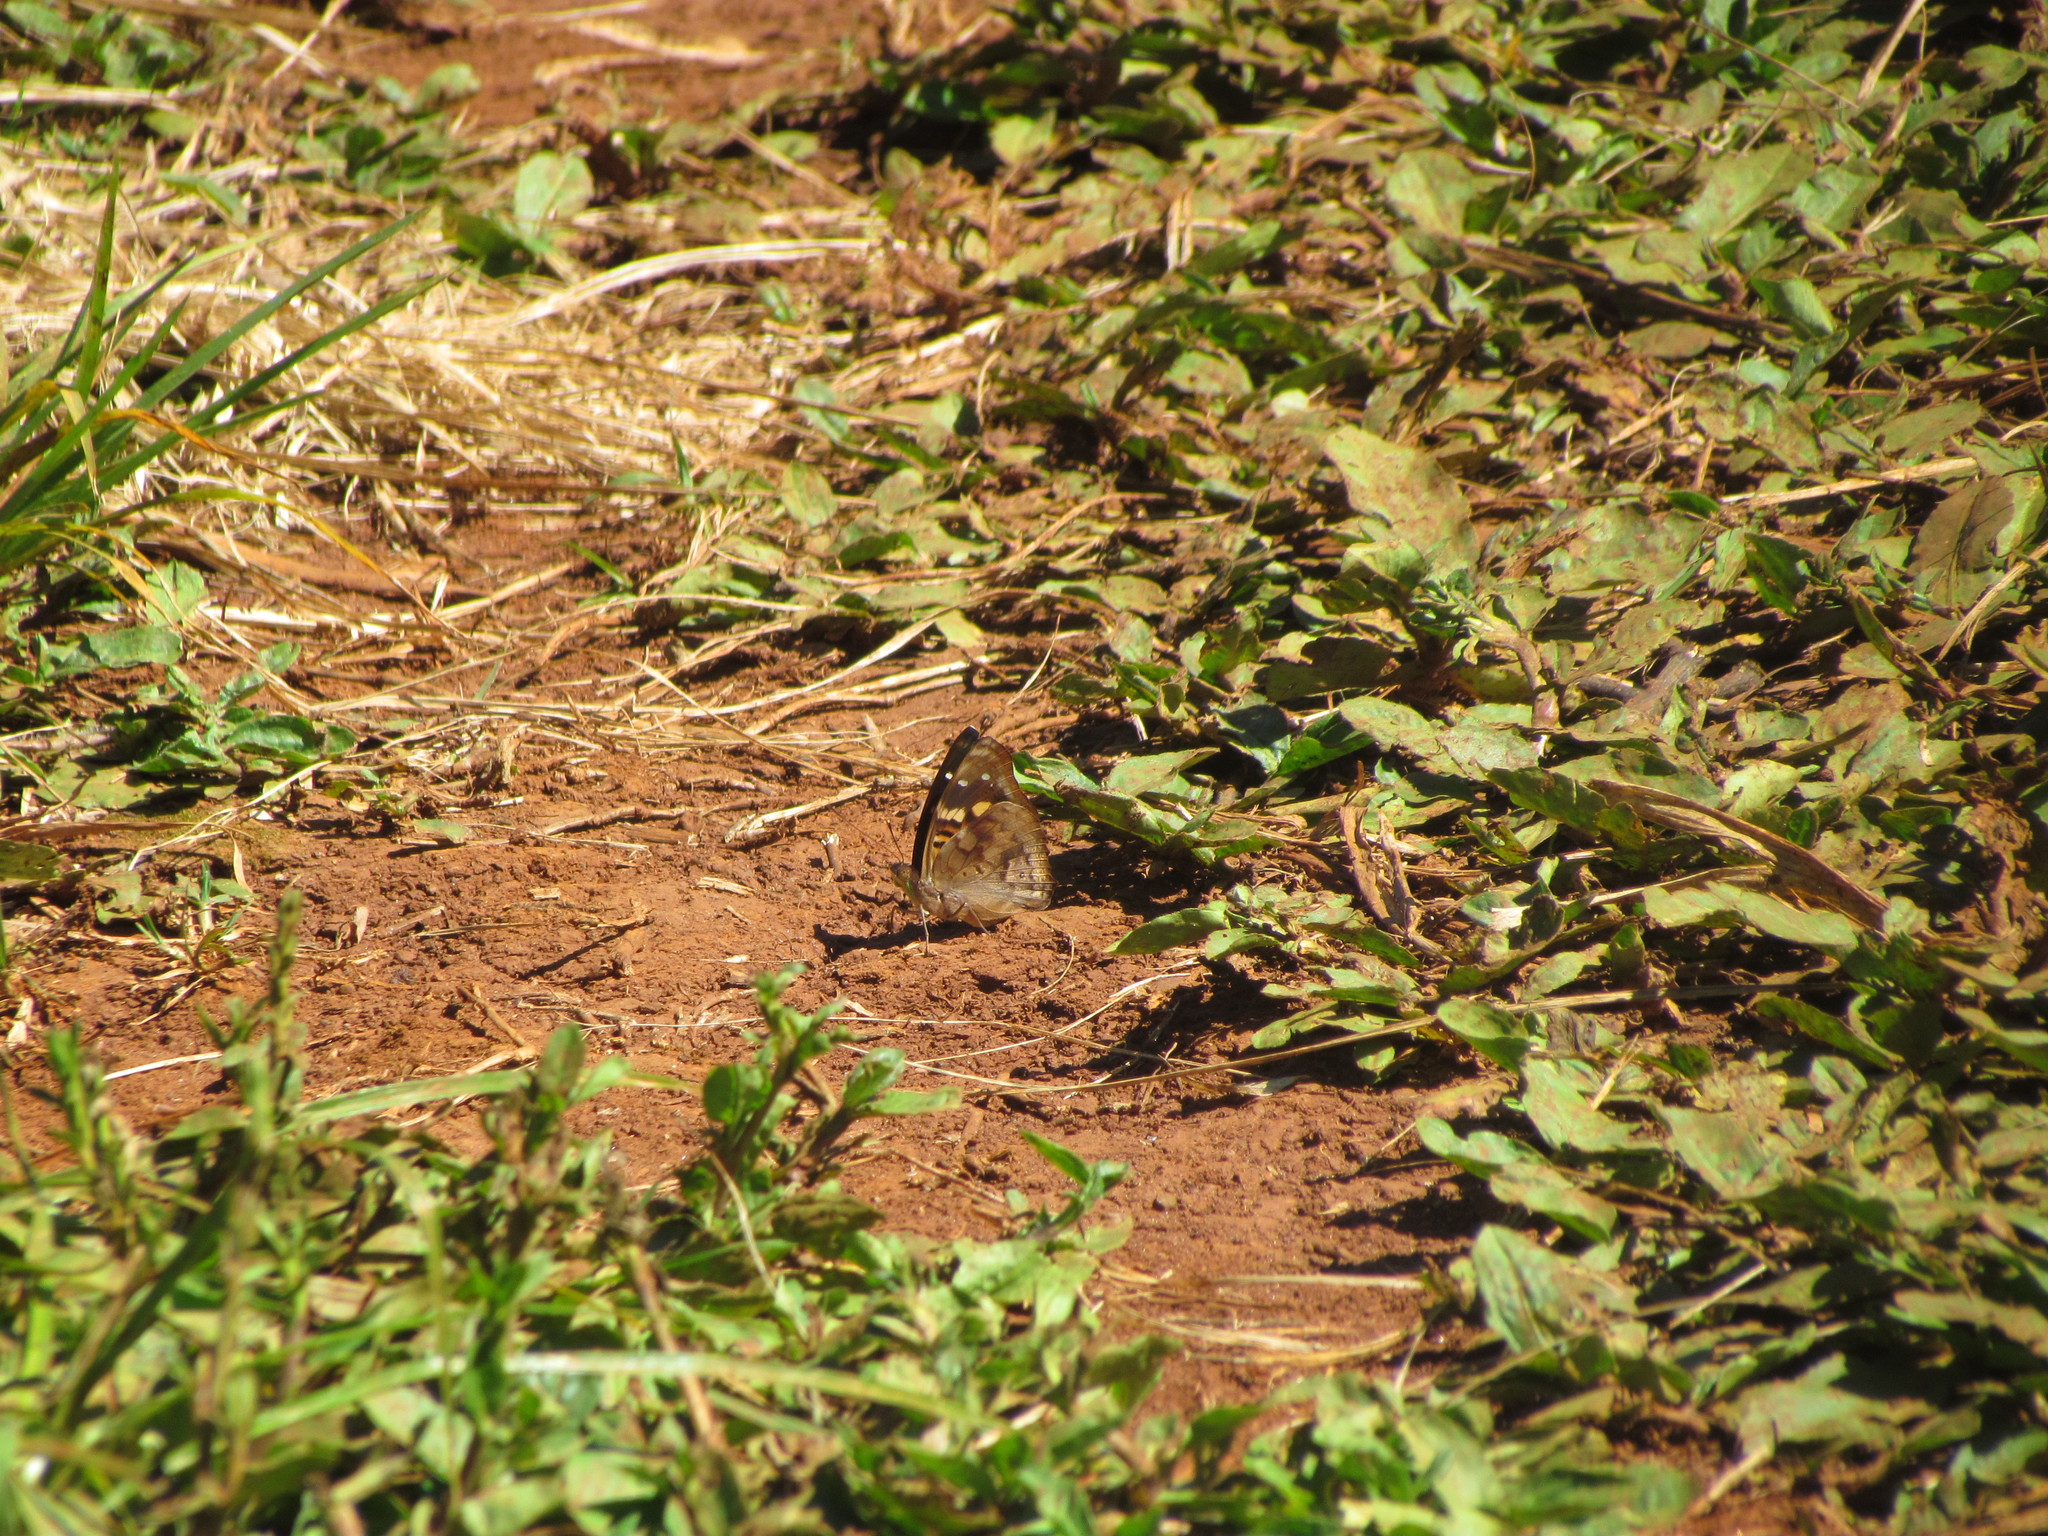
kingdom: Animalia
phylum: Arthropoda
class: Insecta
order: Lepidoptera
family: Nymphalidae
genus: Doxocopa
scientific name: Doxocopa agathina
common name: Agathina emperor
